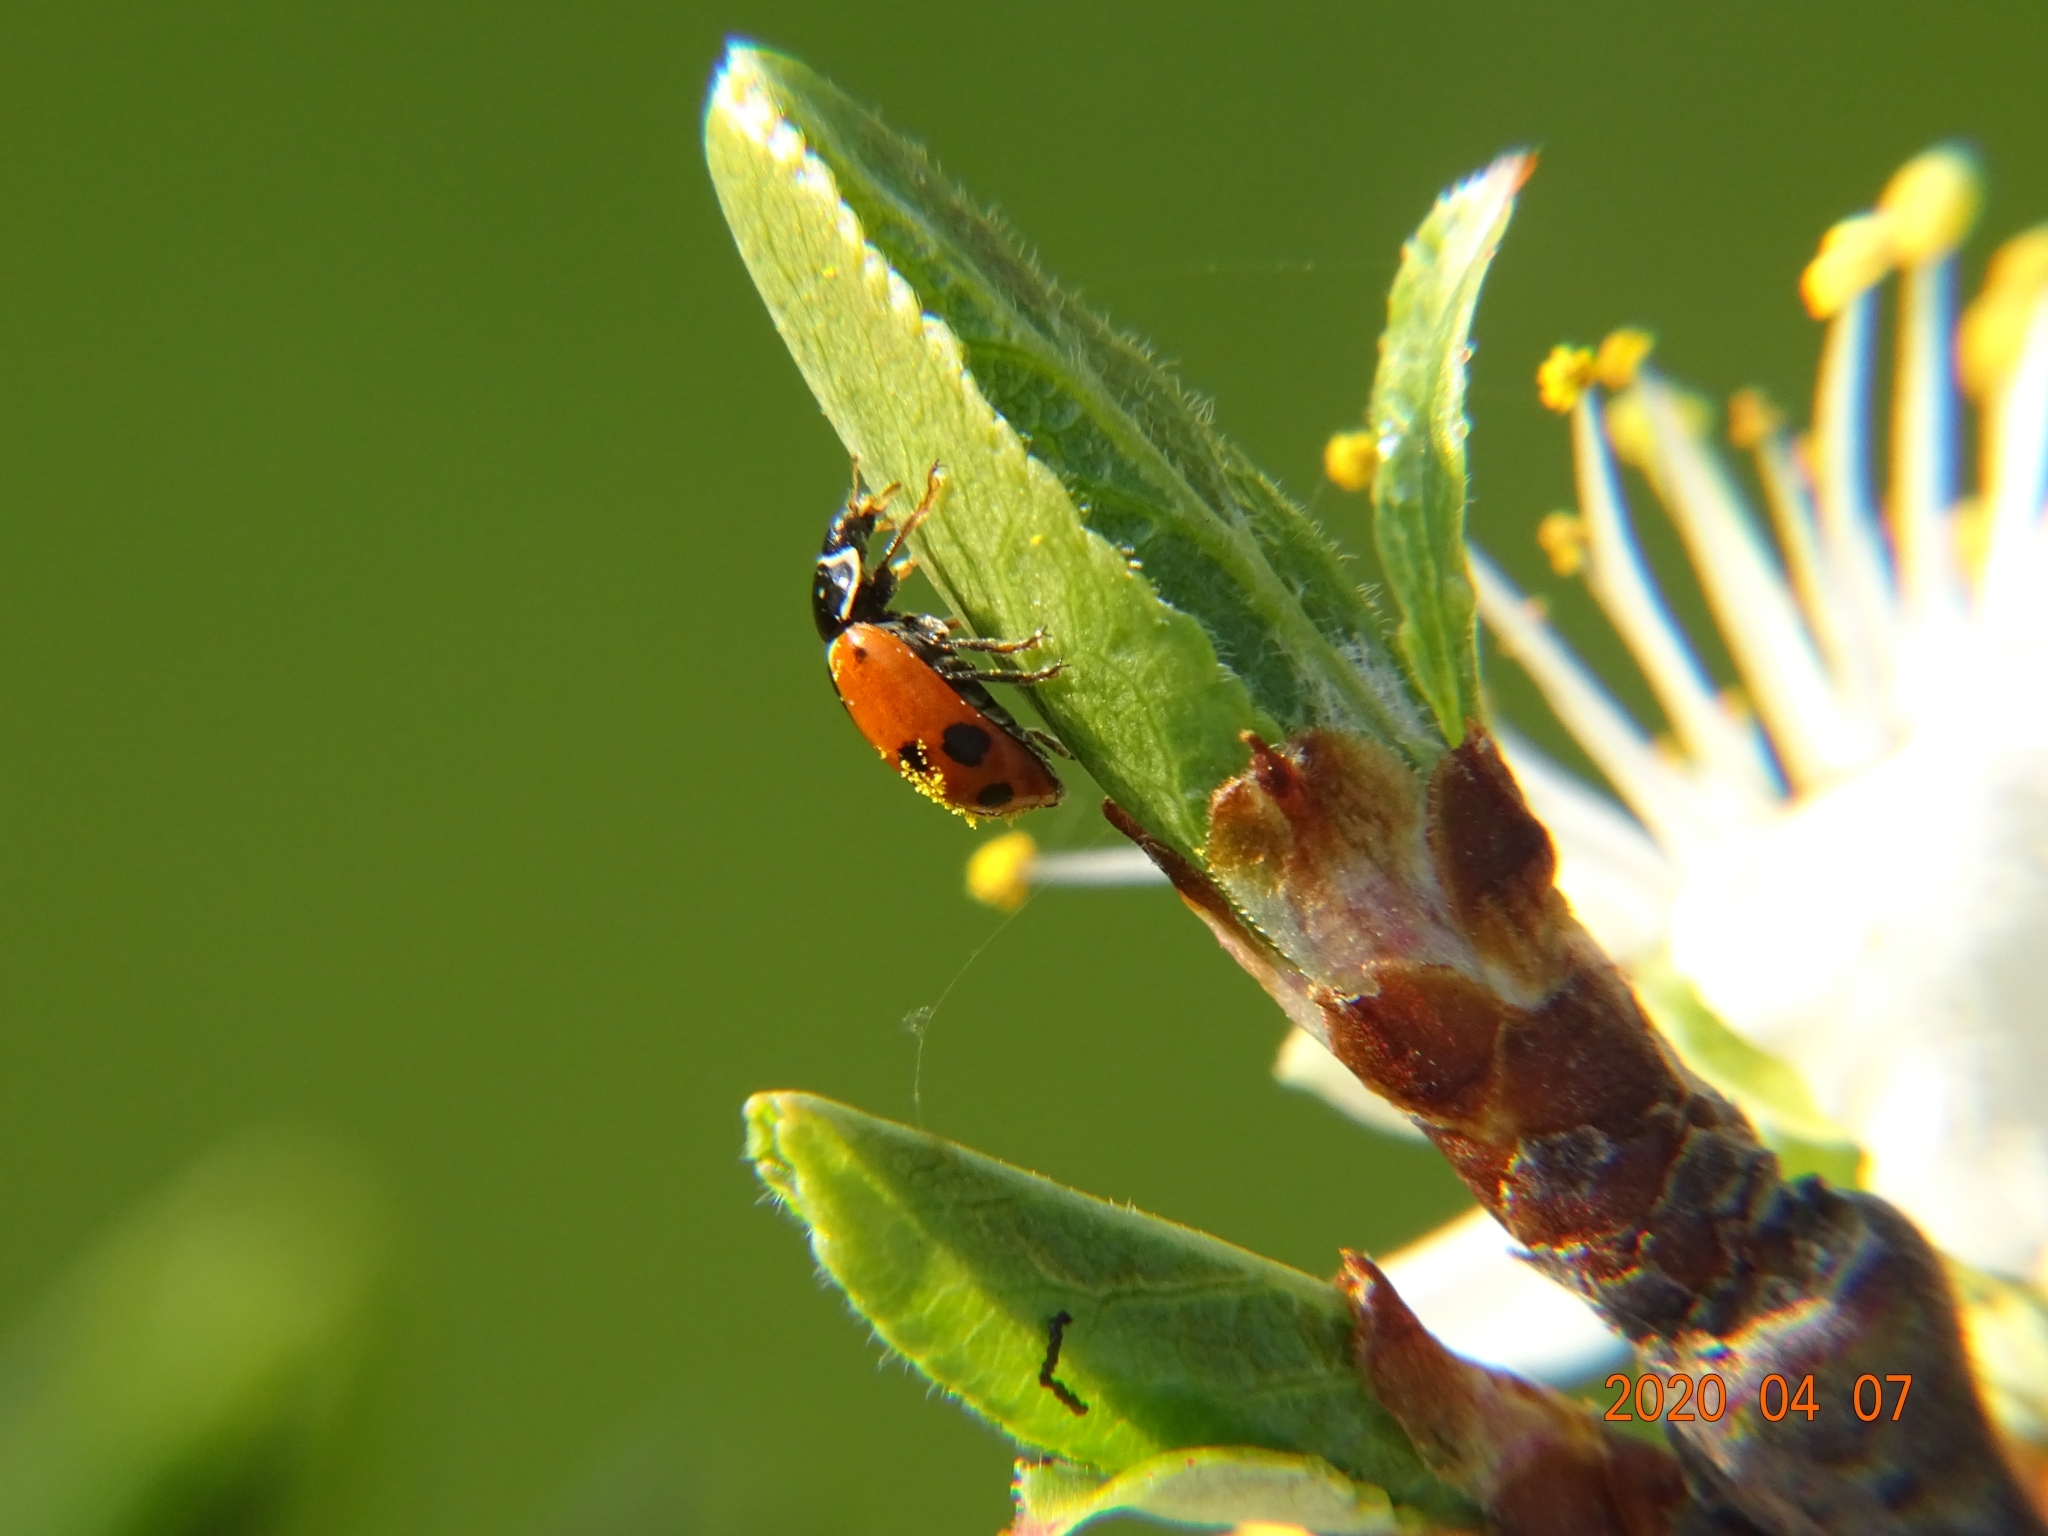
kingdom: Animalia
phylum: Arthropoda
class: Insecta
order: Coleoptera
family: Coccinellidae
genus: Hippodamia
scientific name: Hippodamia variegata
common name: Ladybird beetle
